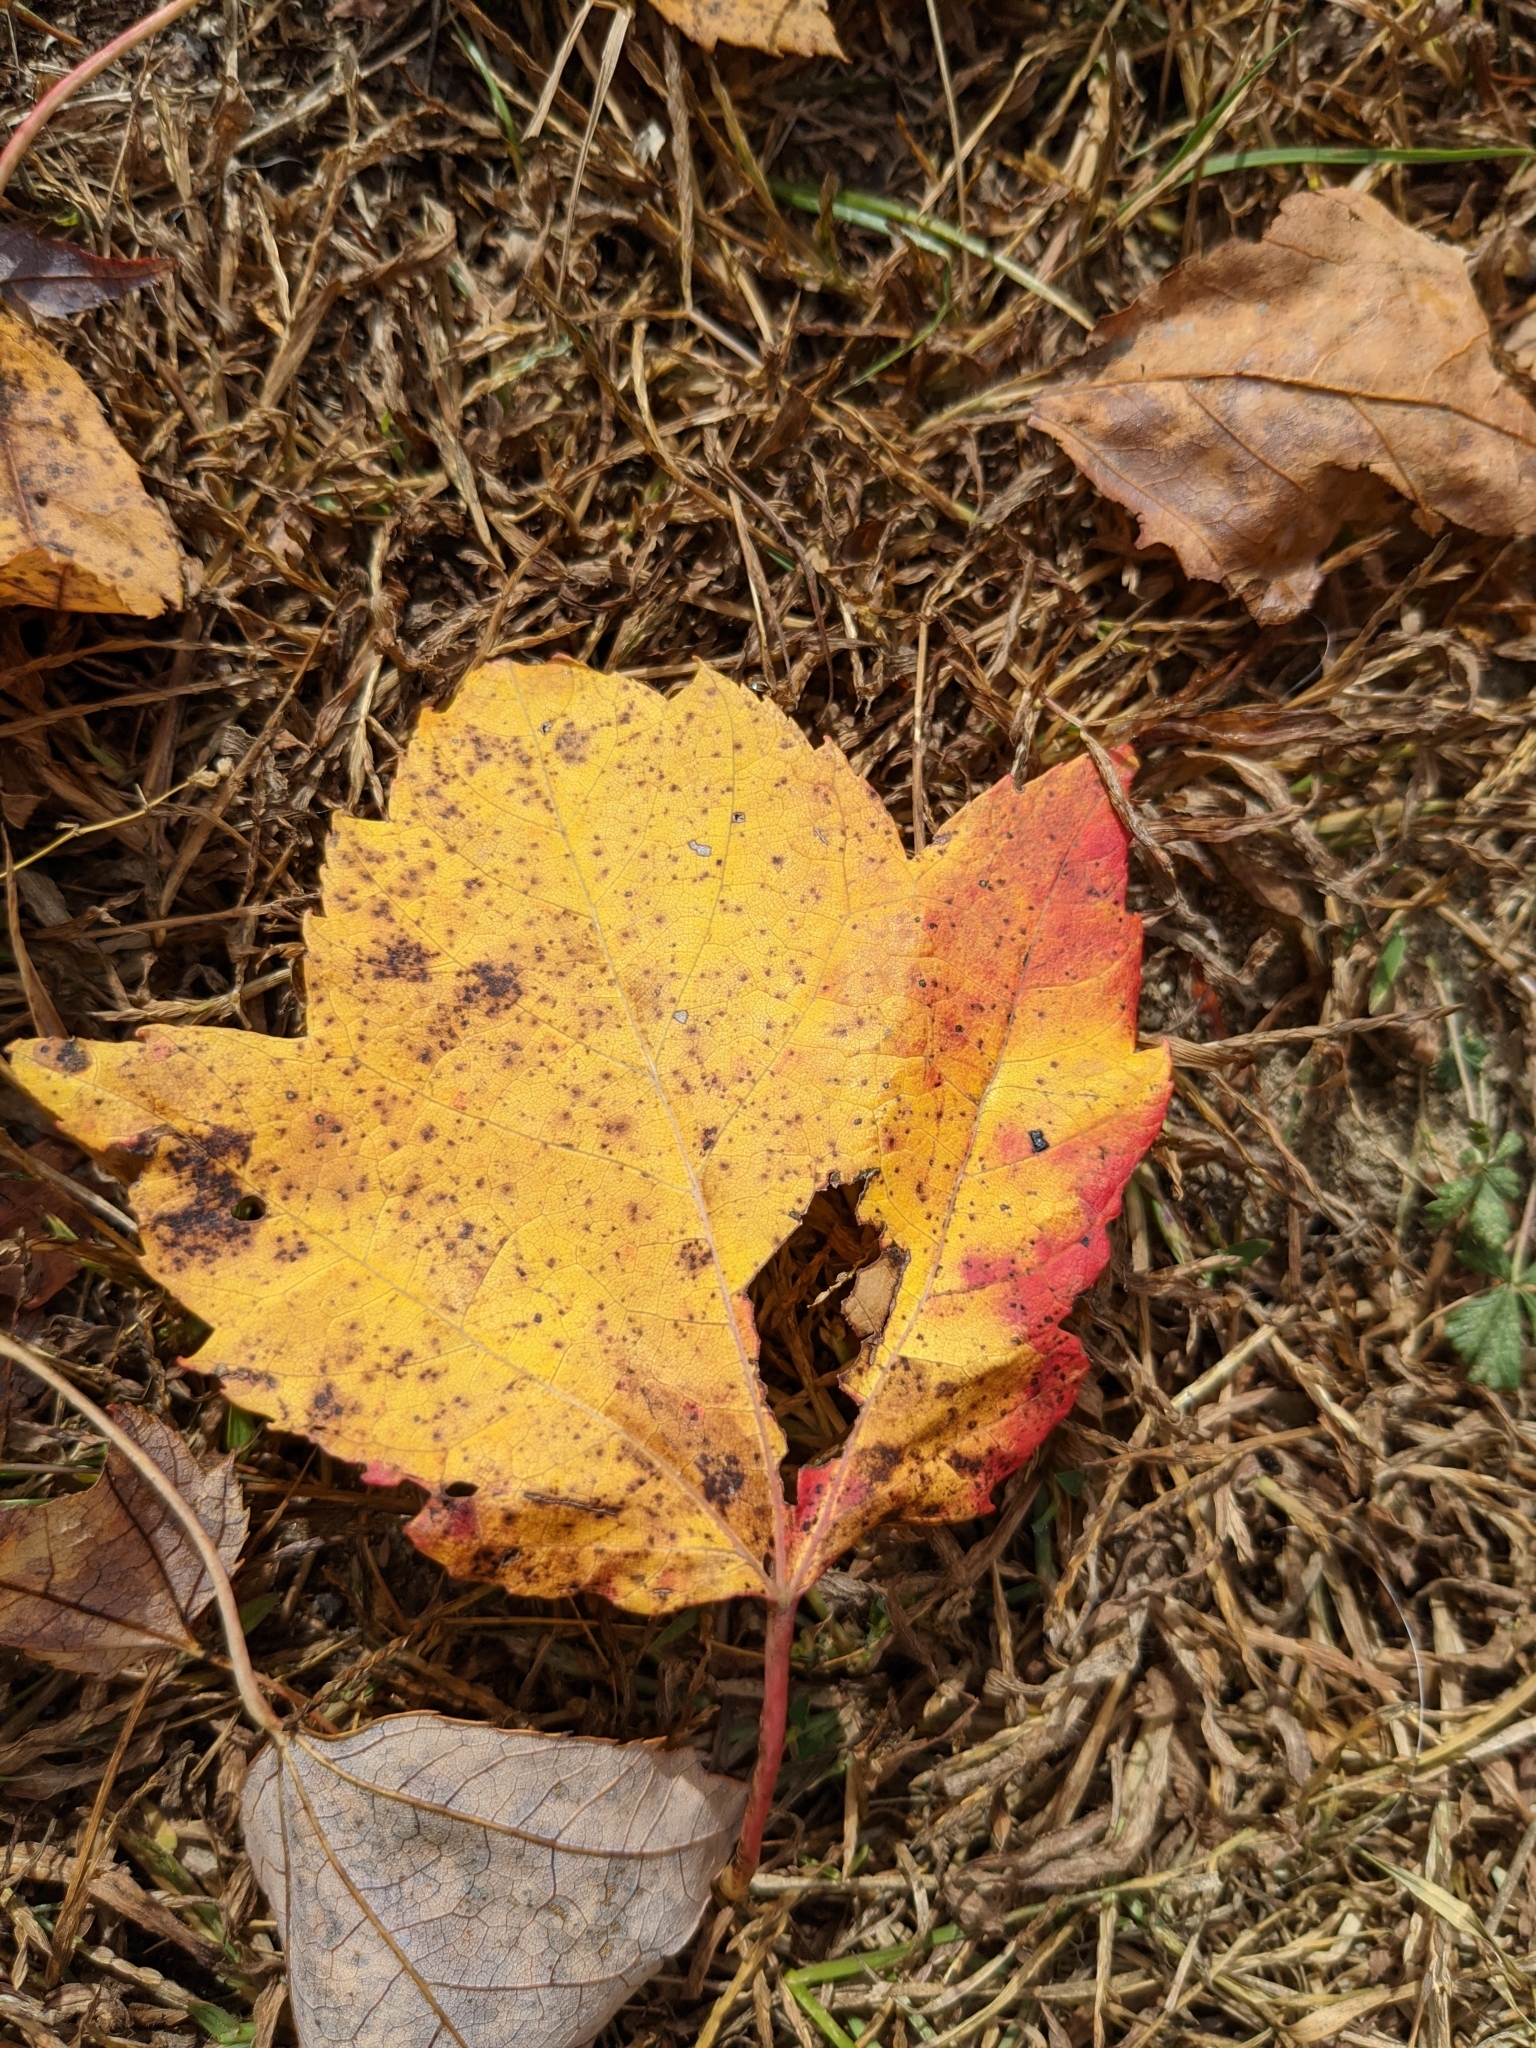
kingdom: Plantae
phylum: Tracheophyta
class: Magnoliopsida
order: Sapindales
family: Sapindaceae
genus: Acer
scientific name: Acer rubrum
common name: Red maple
